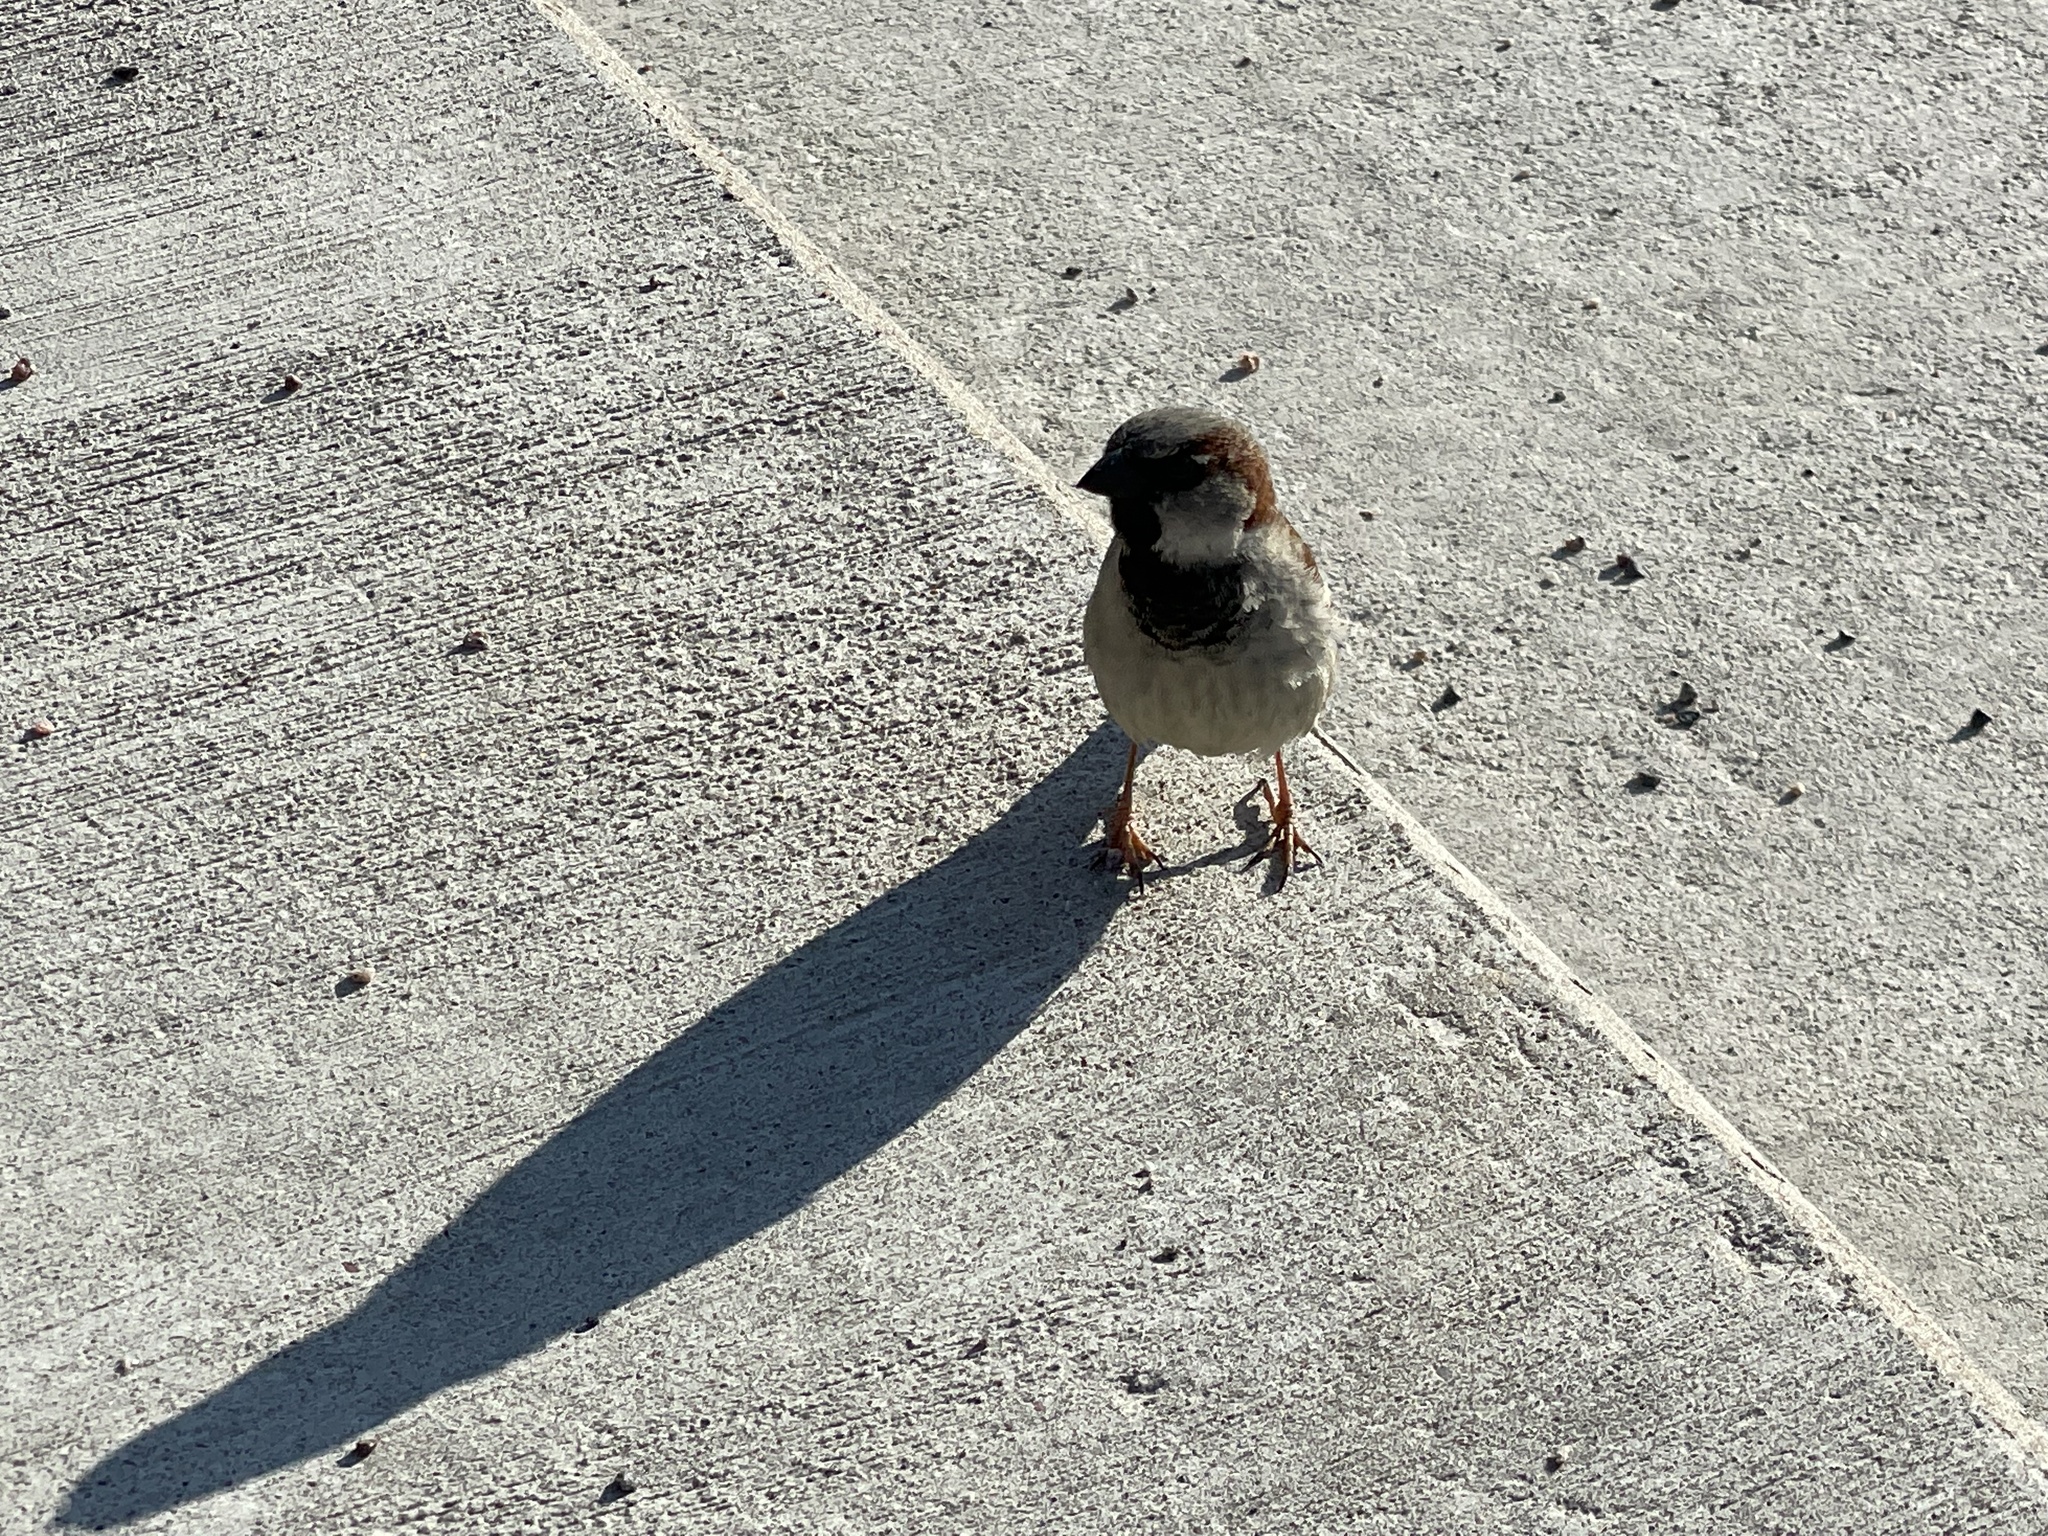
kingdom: Animalia
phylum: Chordata
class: Aves
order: Passeriformes
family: Passeridae
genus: Passer
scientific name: Passer domesticus
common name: House sparrow
